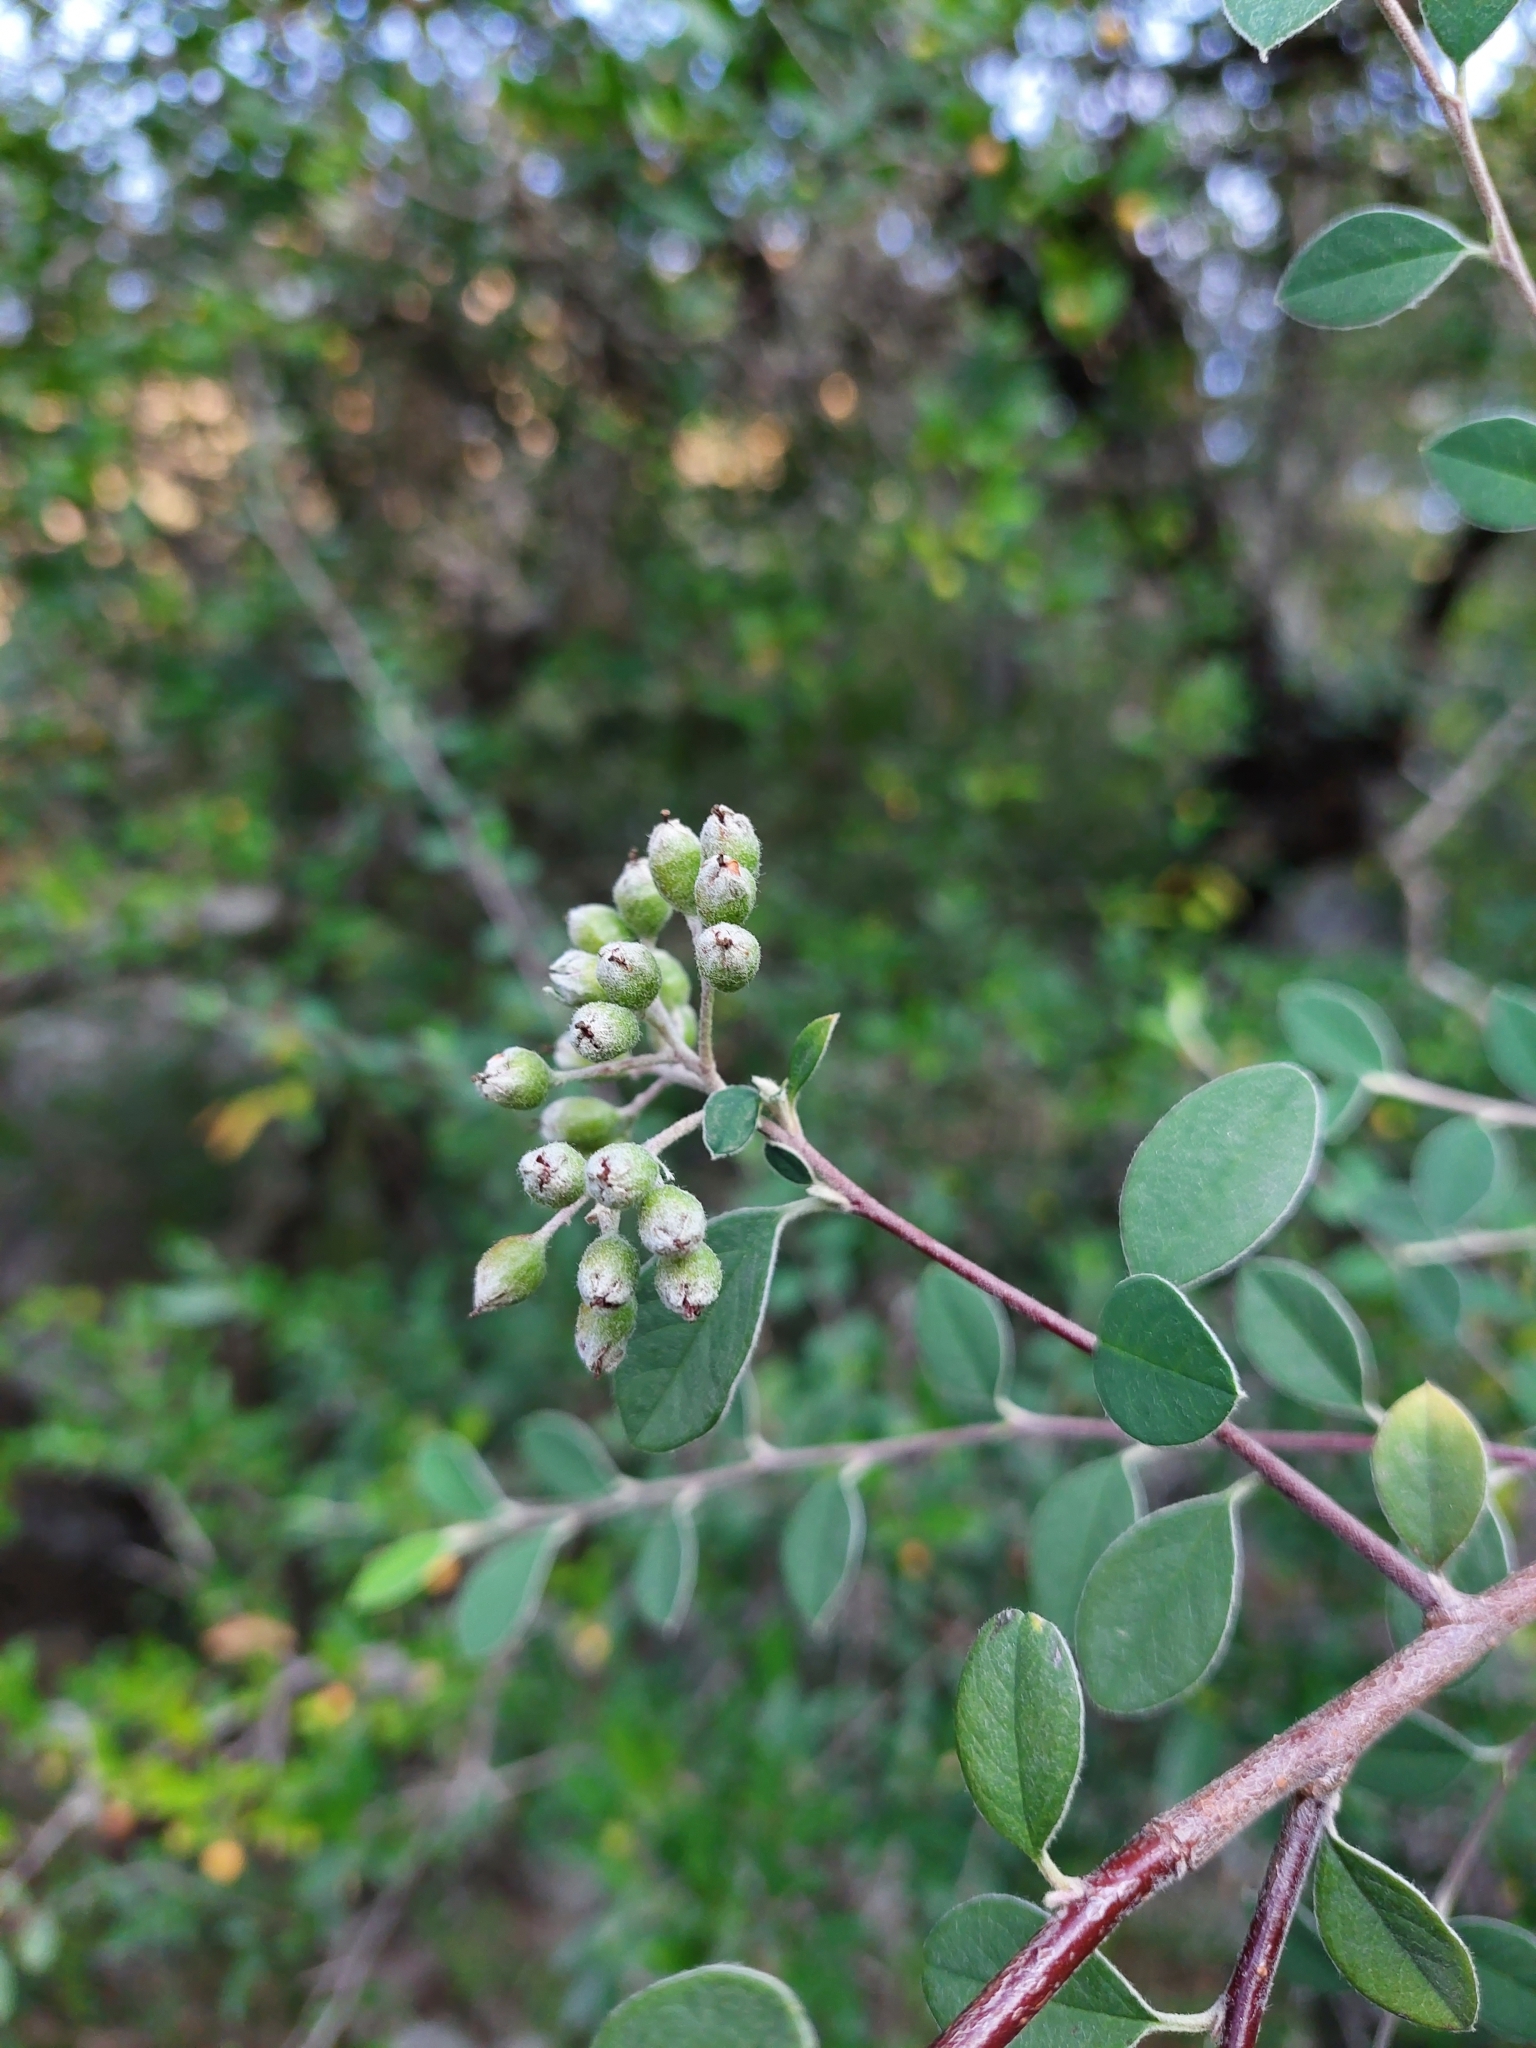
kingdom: Plantae
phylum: Tracheophyta
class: Magnoliopsida
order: Rosales
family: Rosaceae
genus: Cotoneaster
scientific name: Cotoneaster pannosus
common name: Silverleaf cotoneaster
